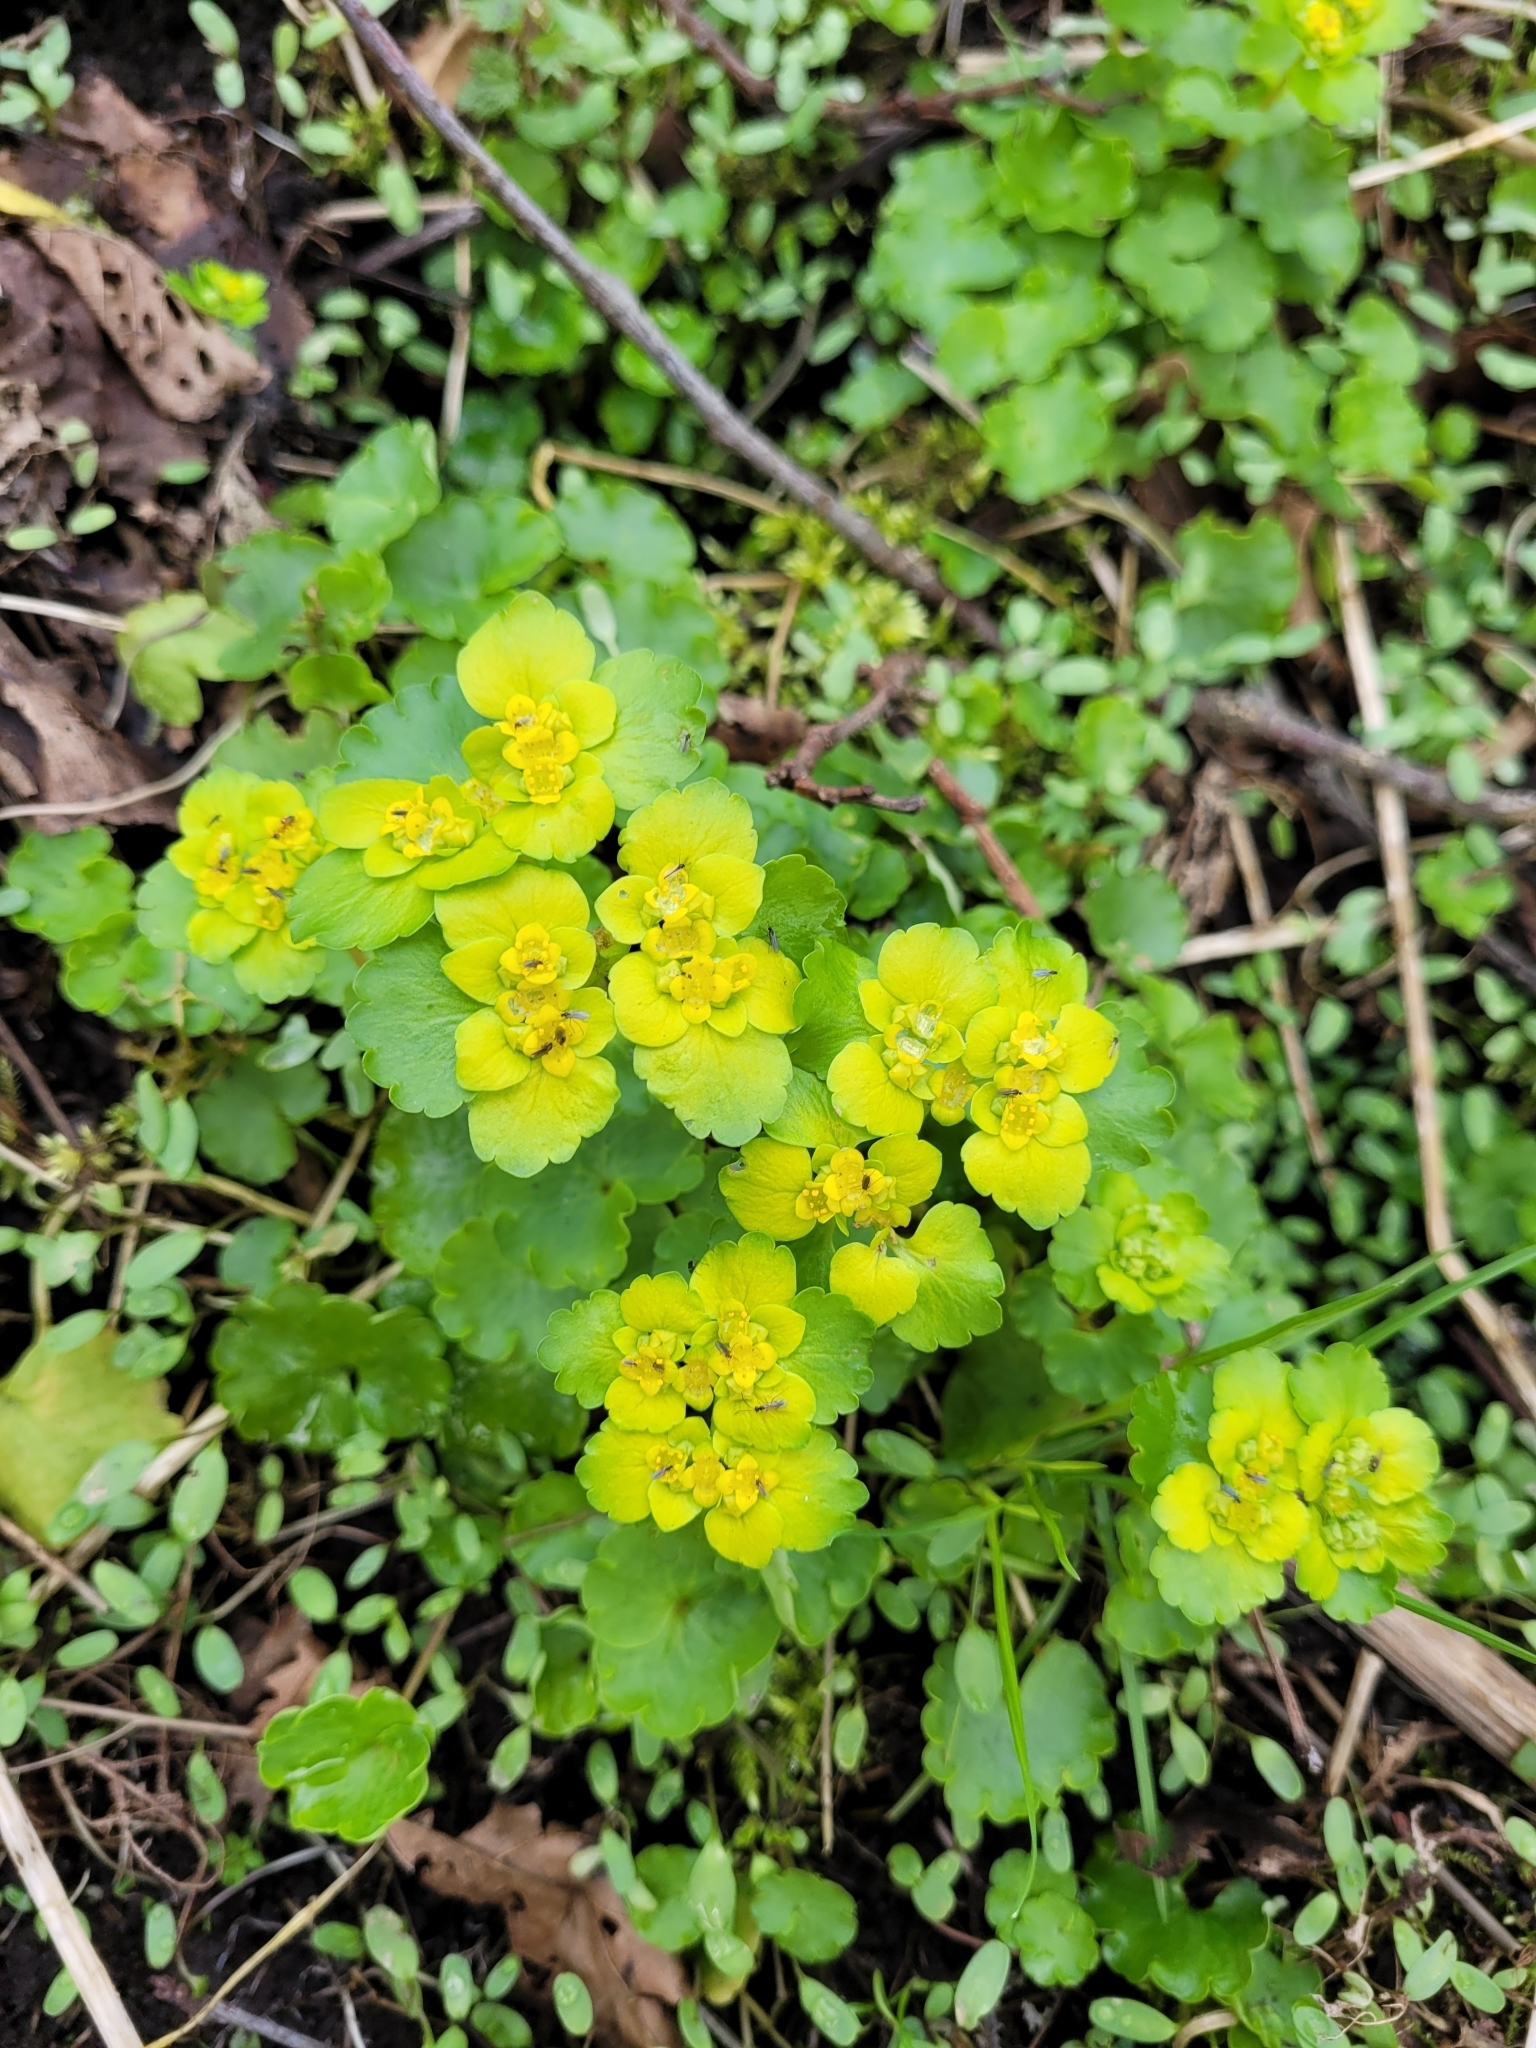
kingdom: Plantae
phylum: Tracheophyta
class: Magnoliopsida
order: Saxifragales
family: Saxifragaceae
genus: Chrysosplenium
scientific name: Chrysosplenium alternifolium
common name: Alternate-leaved golden-saxifrage
